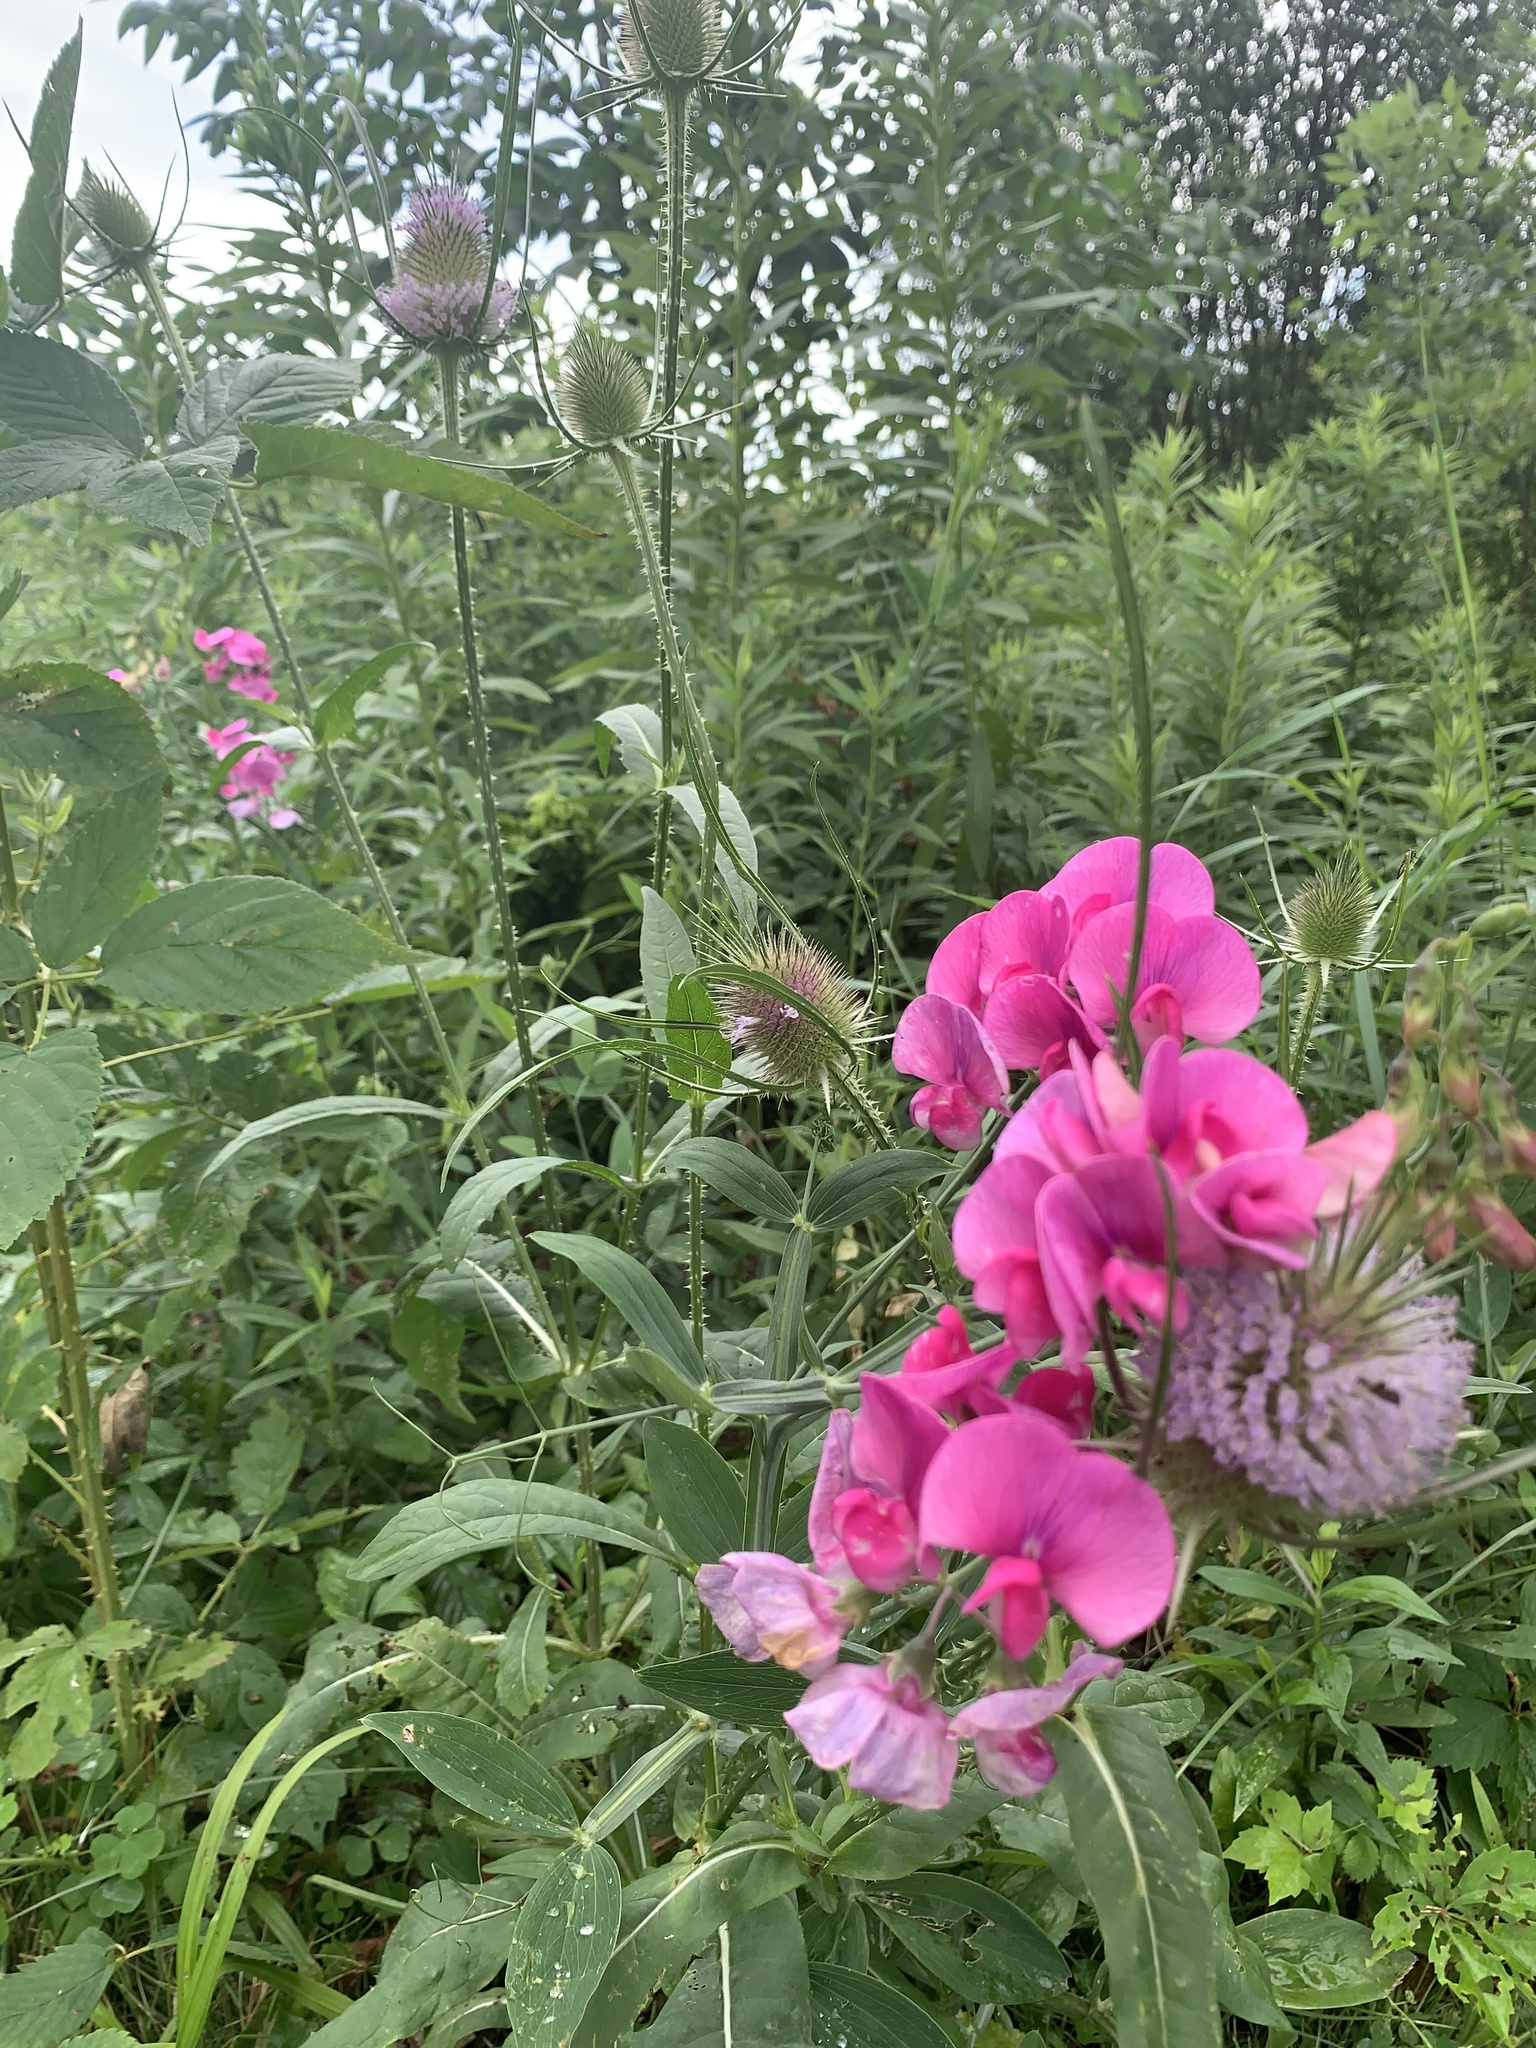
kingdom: Plantae
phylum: Tracheophyta
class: Magnoliopsida
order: Fabales
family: Fabaceae
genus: Lathyrus
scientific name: Lathyrus latifolius
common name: Perennial pea
